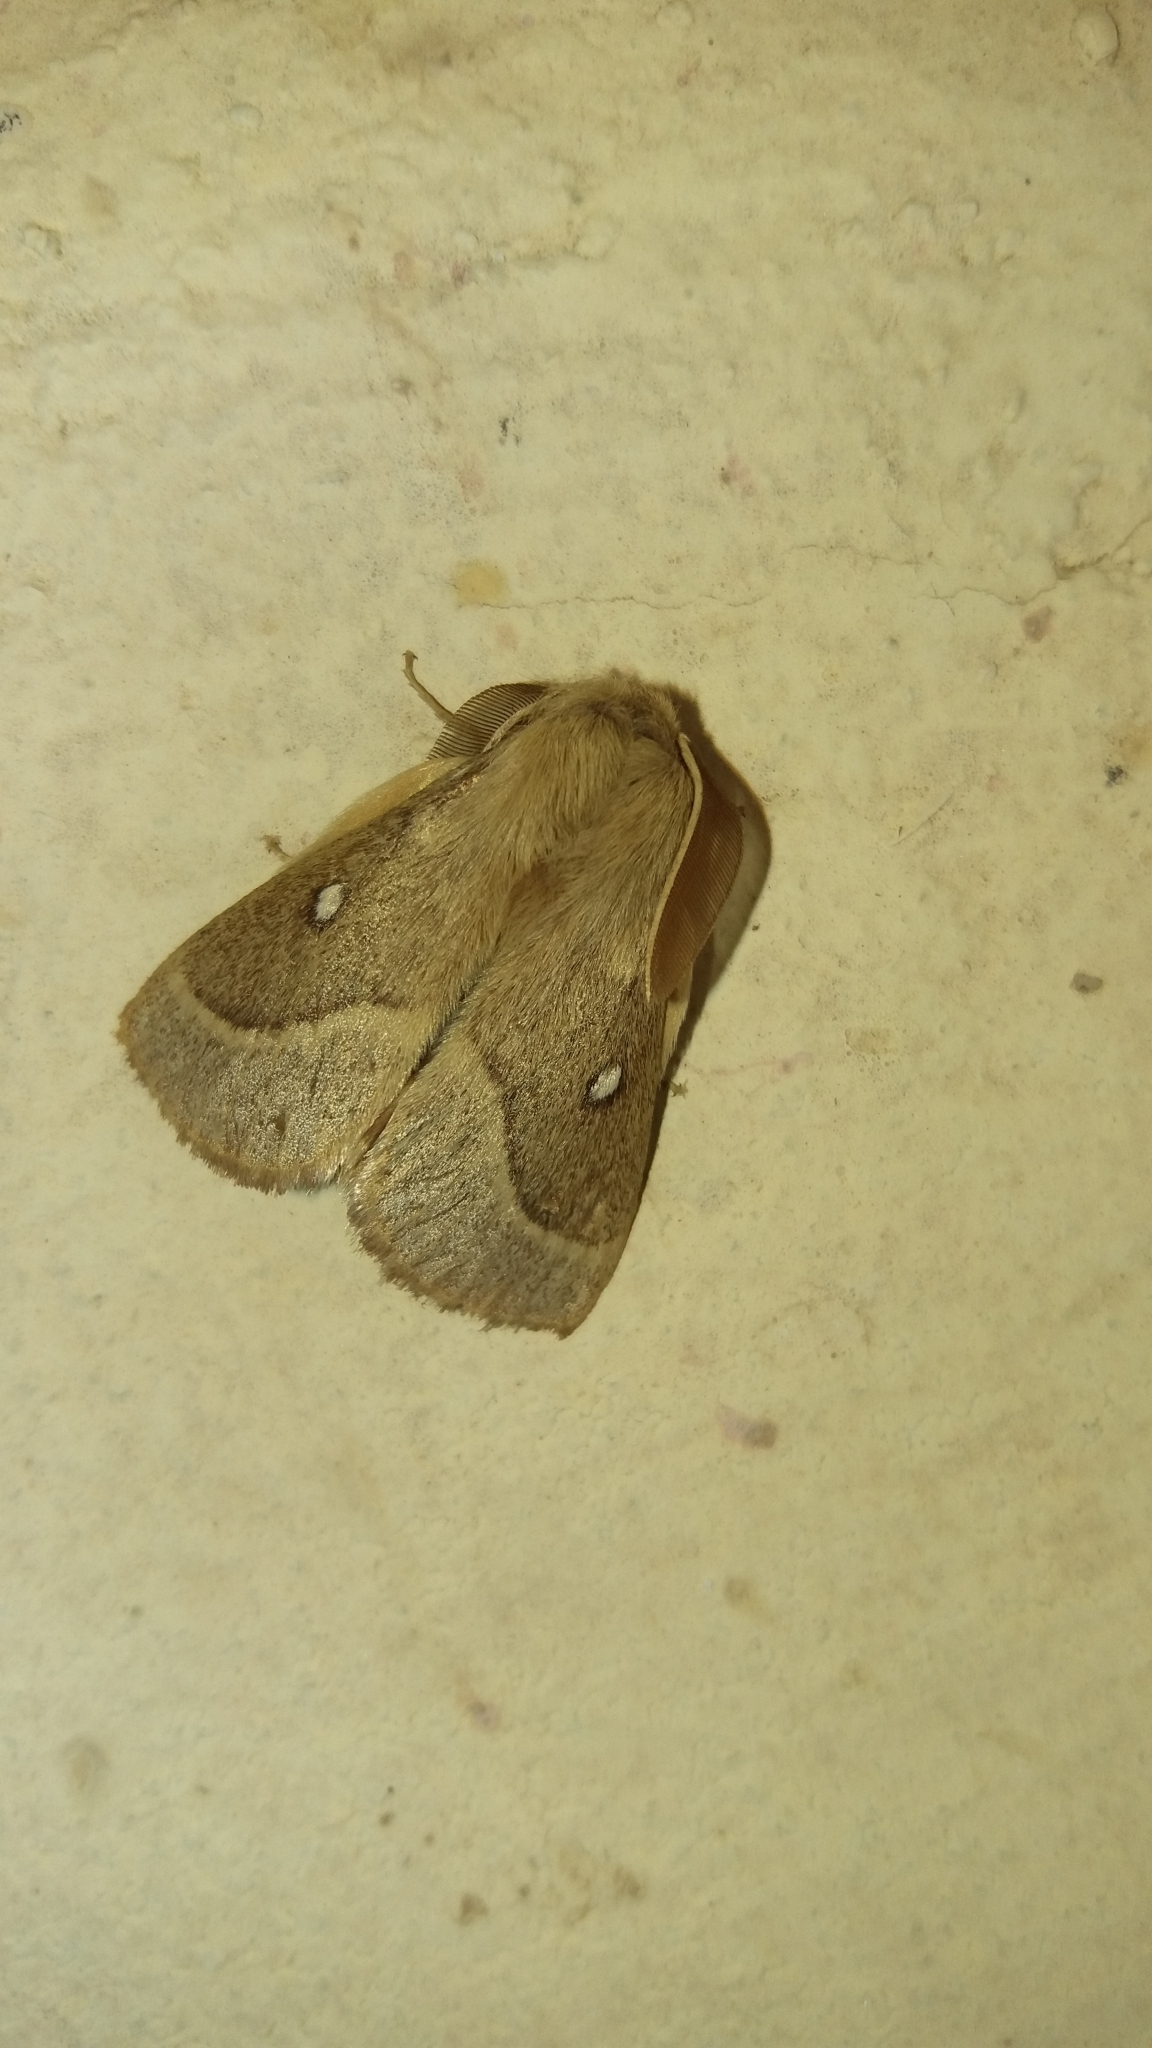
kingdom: Animalia
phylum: Arthropoda
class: Insecta
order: Lepidoptera
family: Lasiocampidae
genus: Lasiocampa
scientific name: Lasiocampa trifolii
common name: Grass eggar
